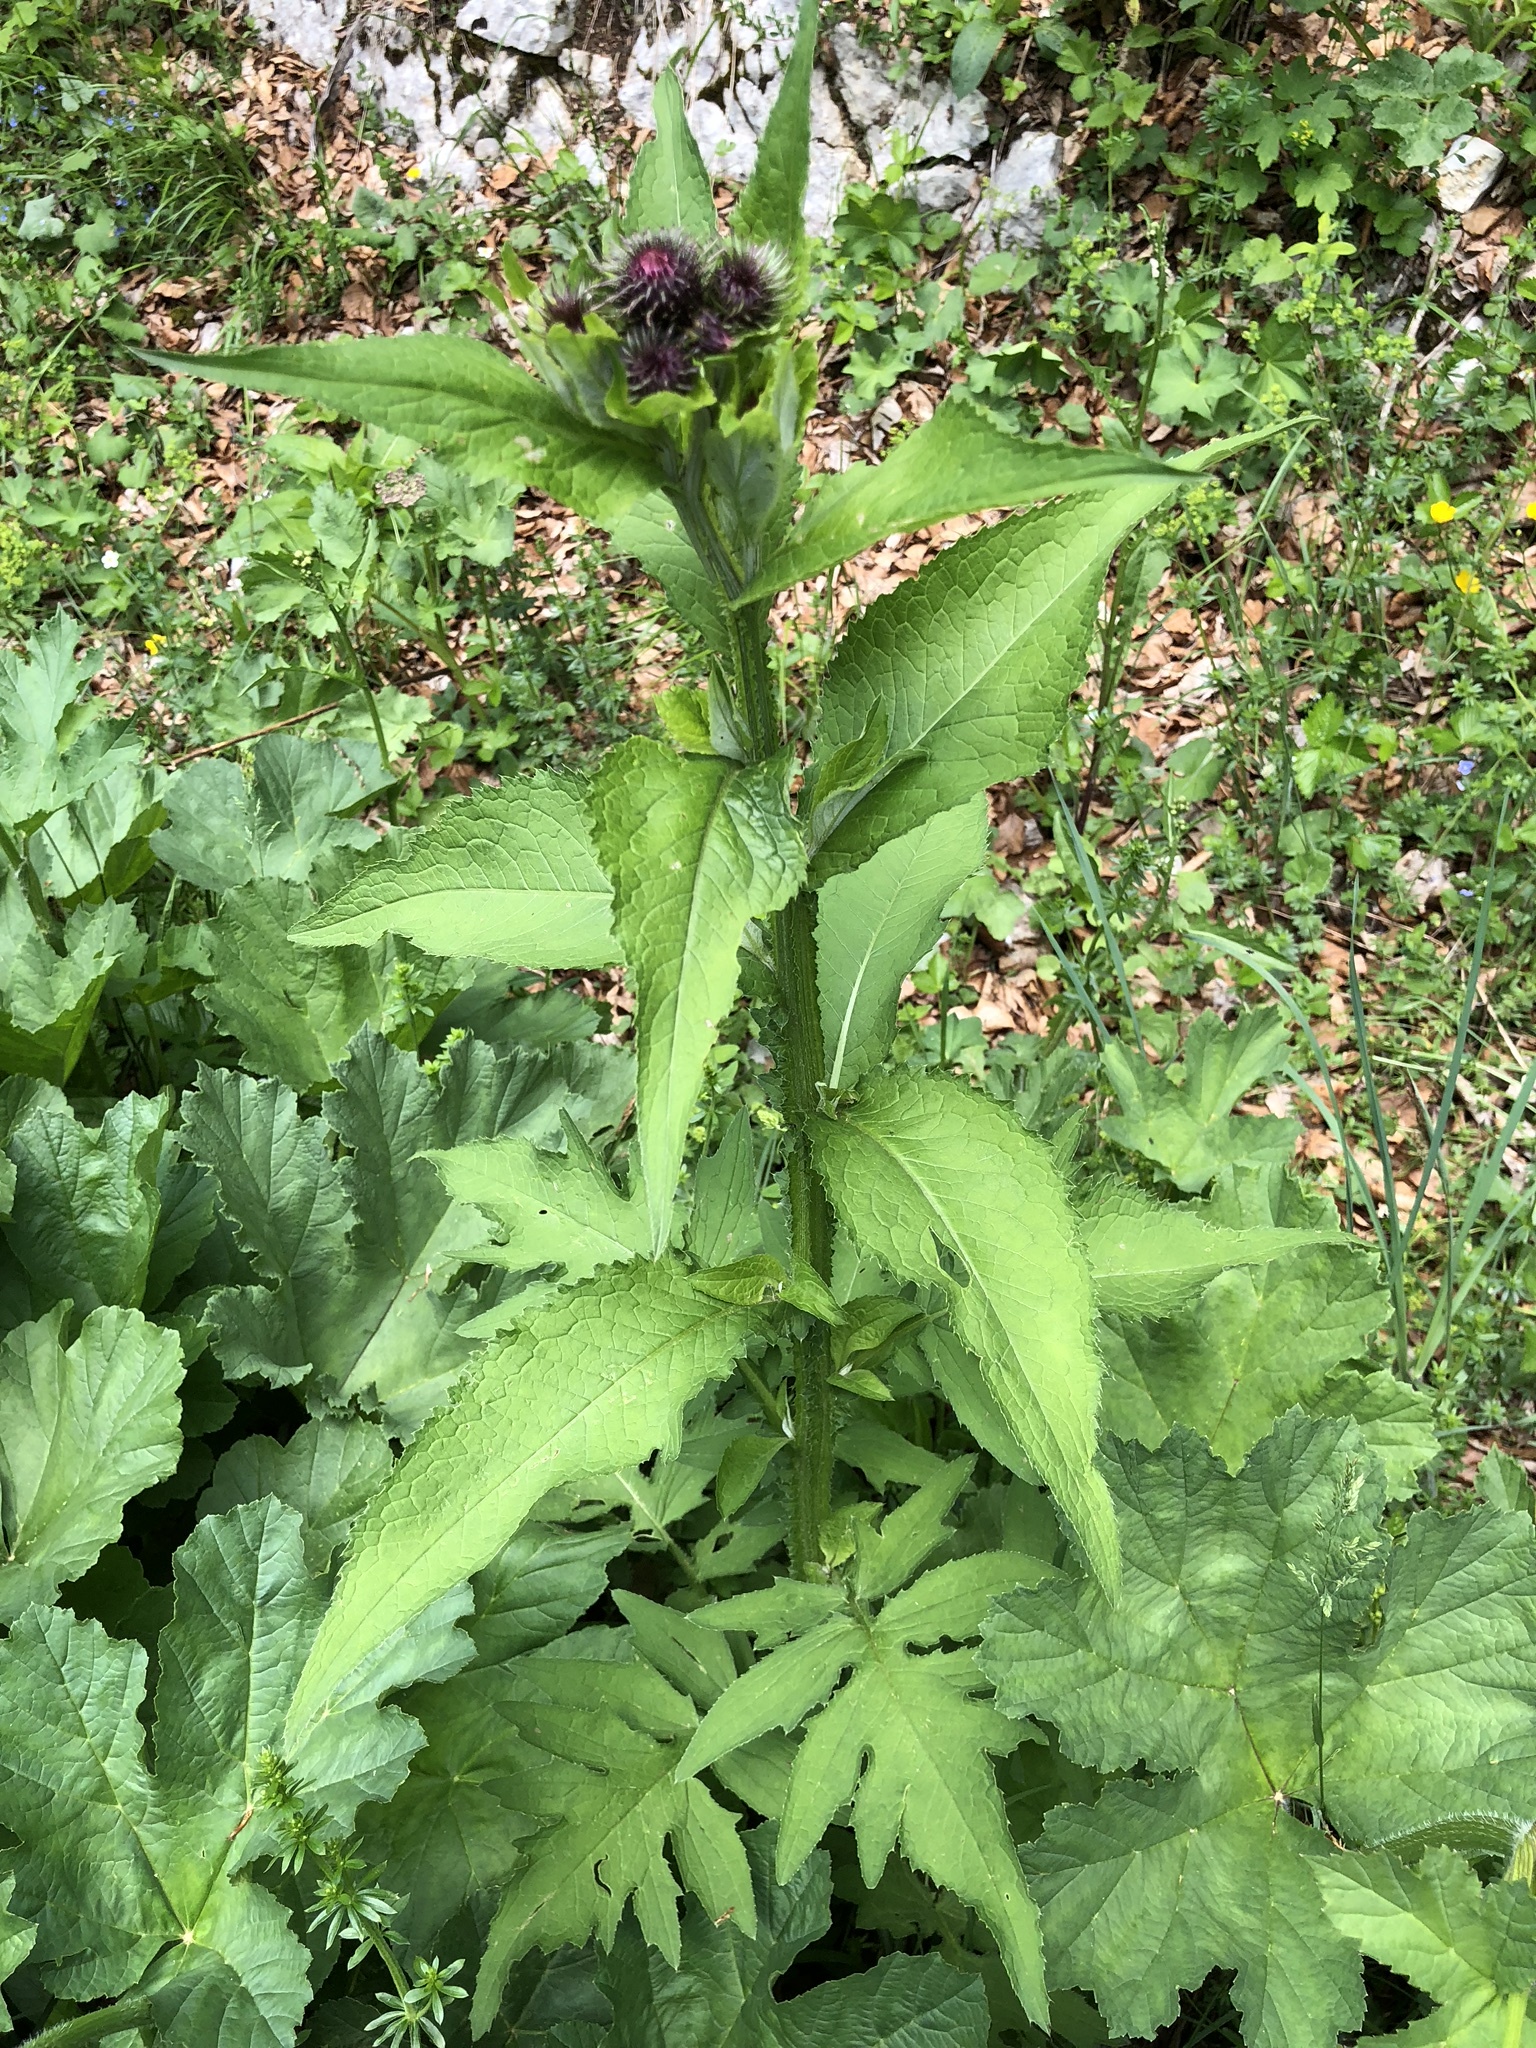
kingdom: Plantae
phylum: Tracheophyta
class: Magnoliopsida
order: Asterales
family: Asteraceae
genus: Carduus
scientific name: Carduus personata
